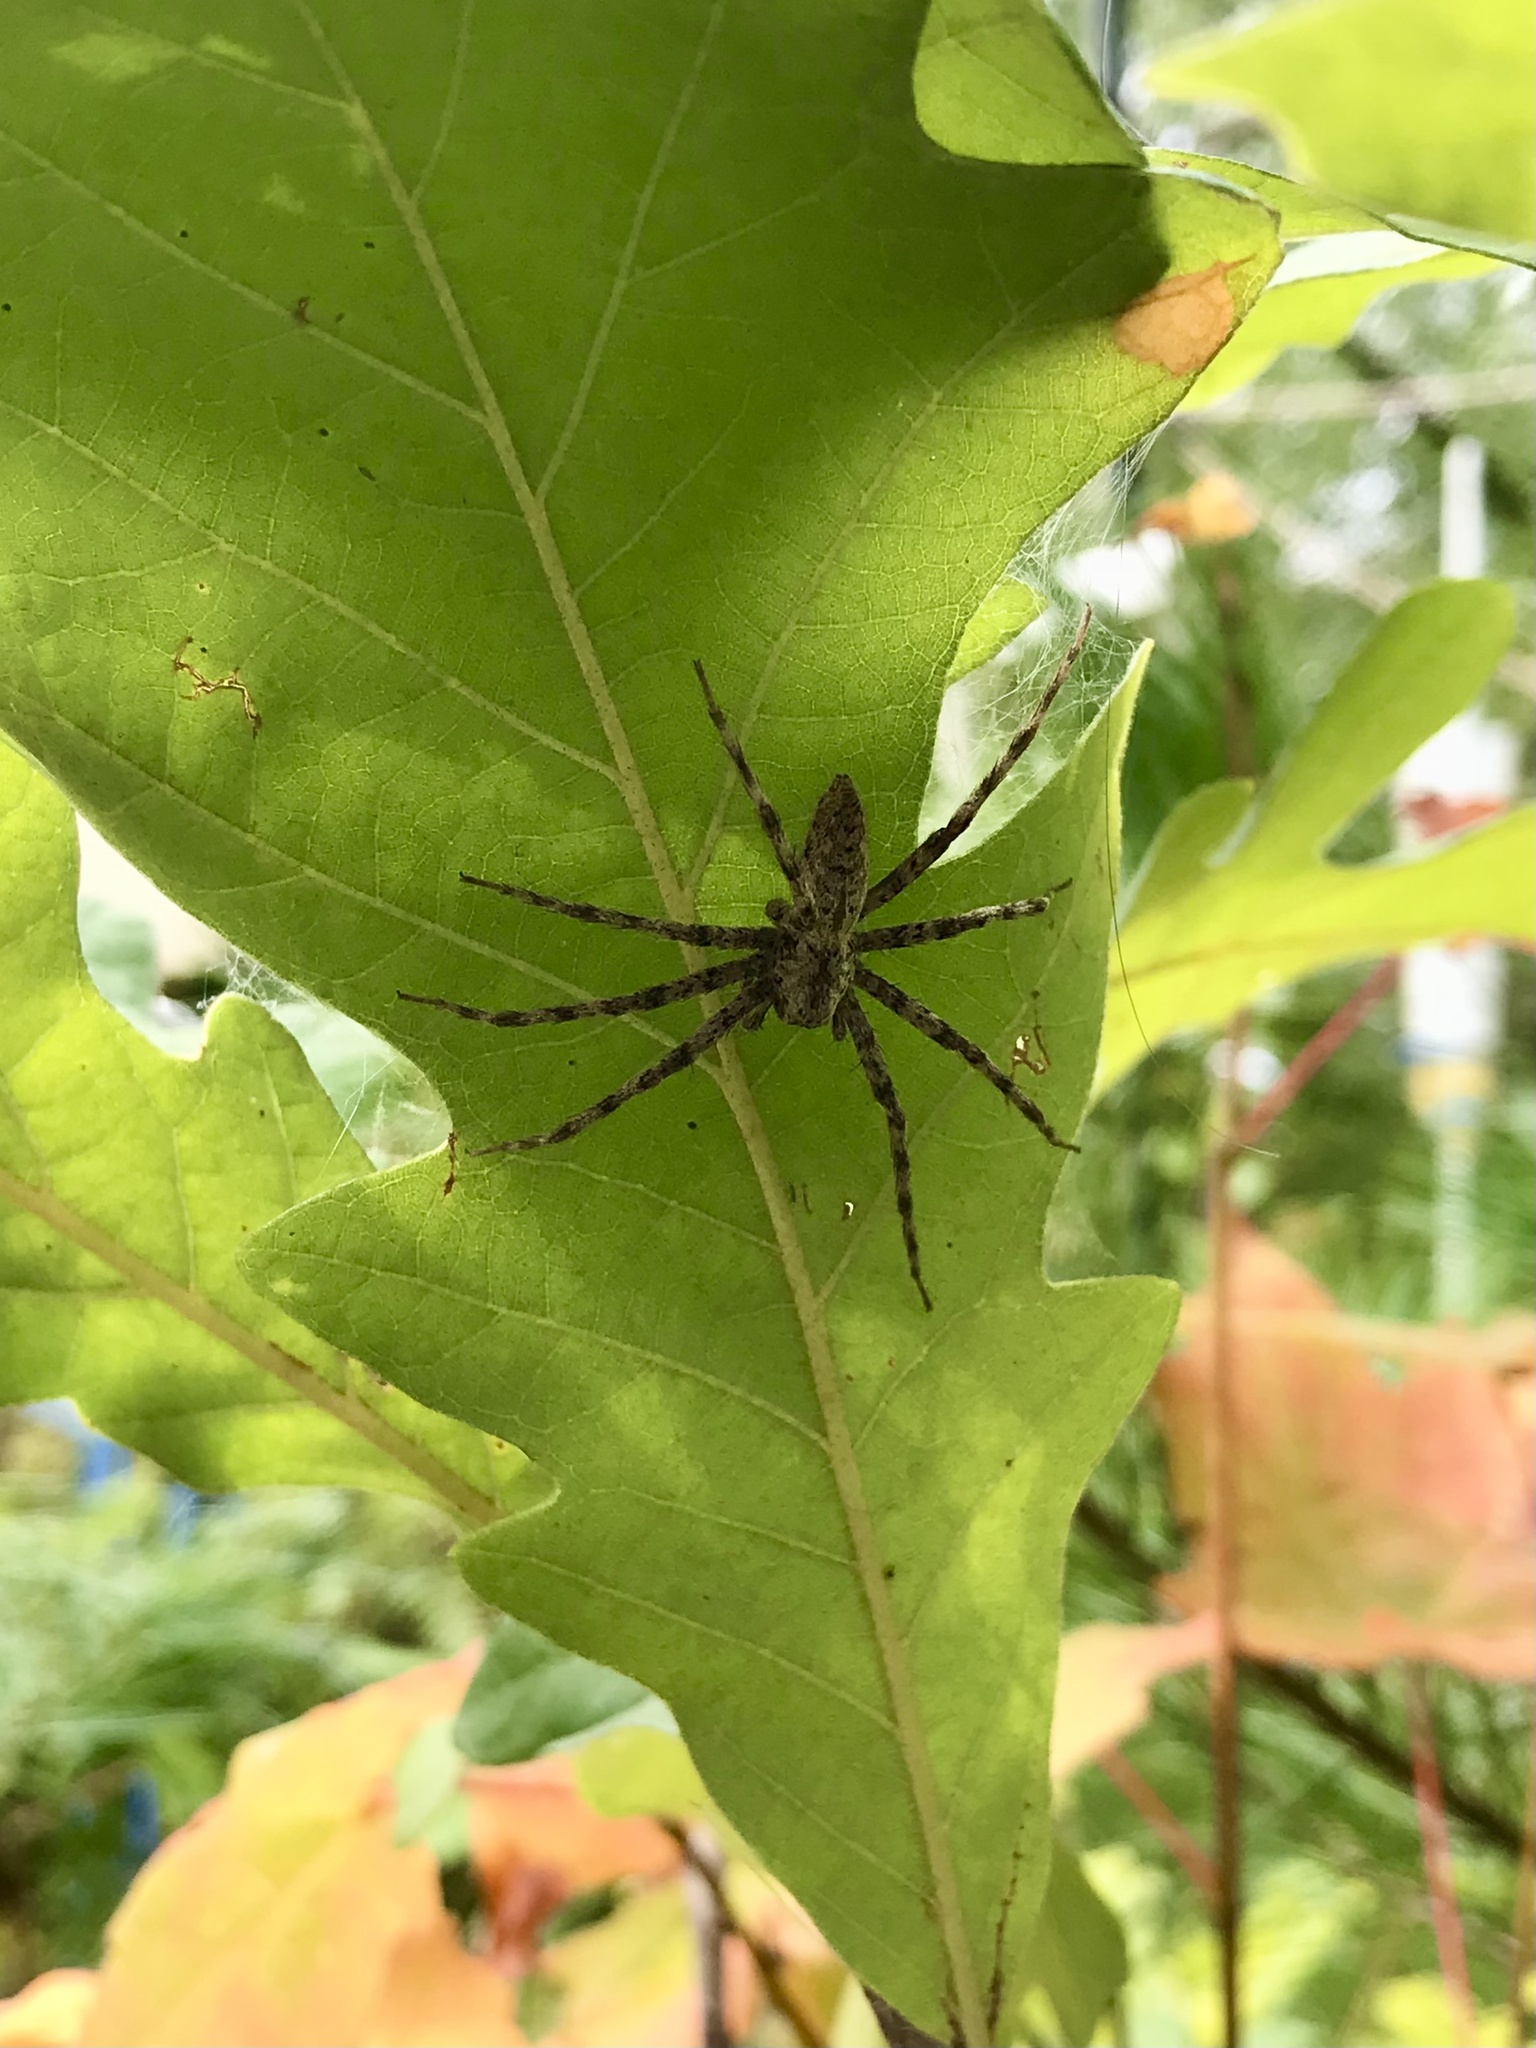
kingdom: Animalia
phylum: Arthropoda
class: Arachnida
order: Araneae
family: Pisauridae
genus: Pisaurina
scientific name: Pisaurina mira
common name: American nursery web spider
